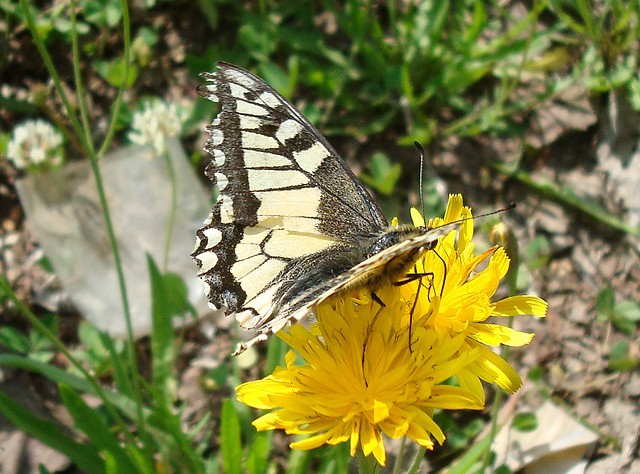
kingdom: Animalia
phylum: Arthropoda
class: Insecta
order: Lepidoptera
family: Papilionidae
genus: Papilio
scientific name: Papilio machaon
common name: Swallowtail
